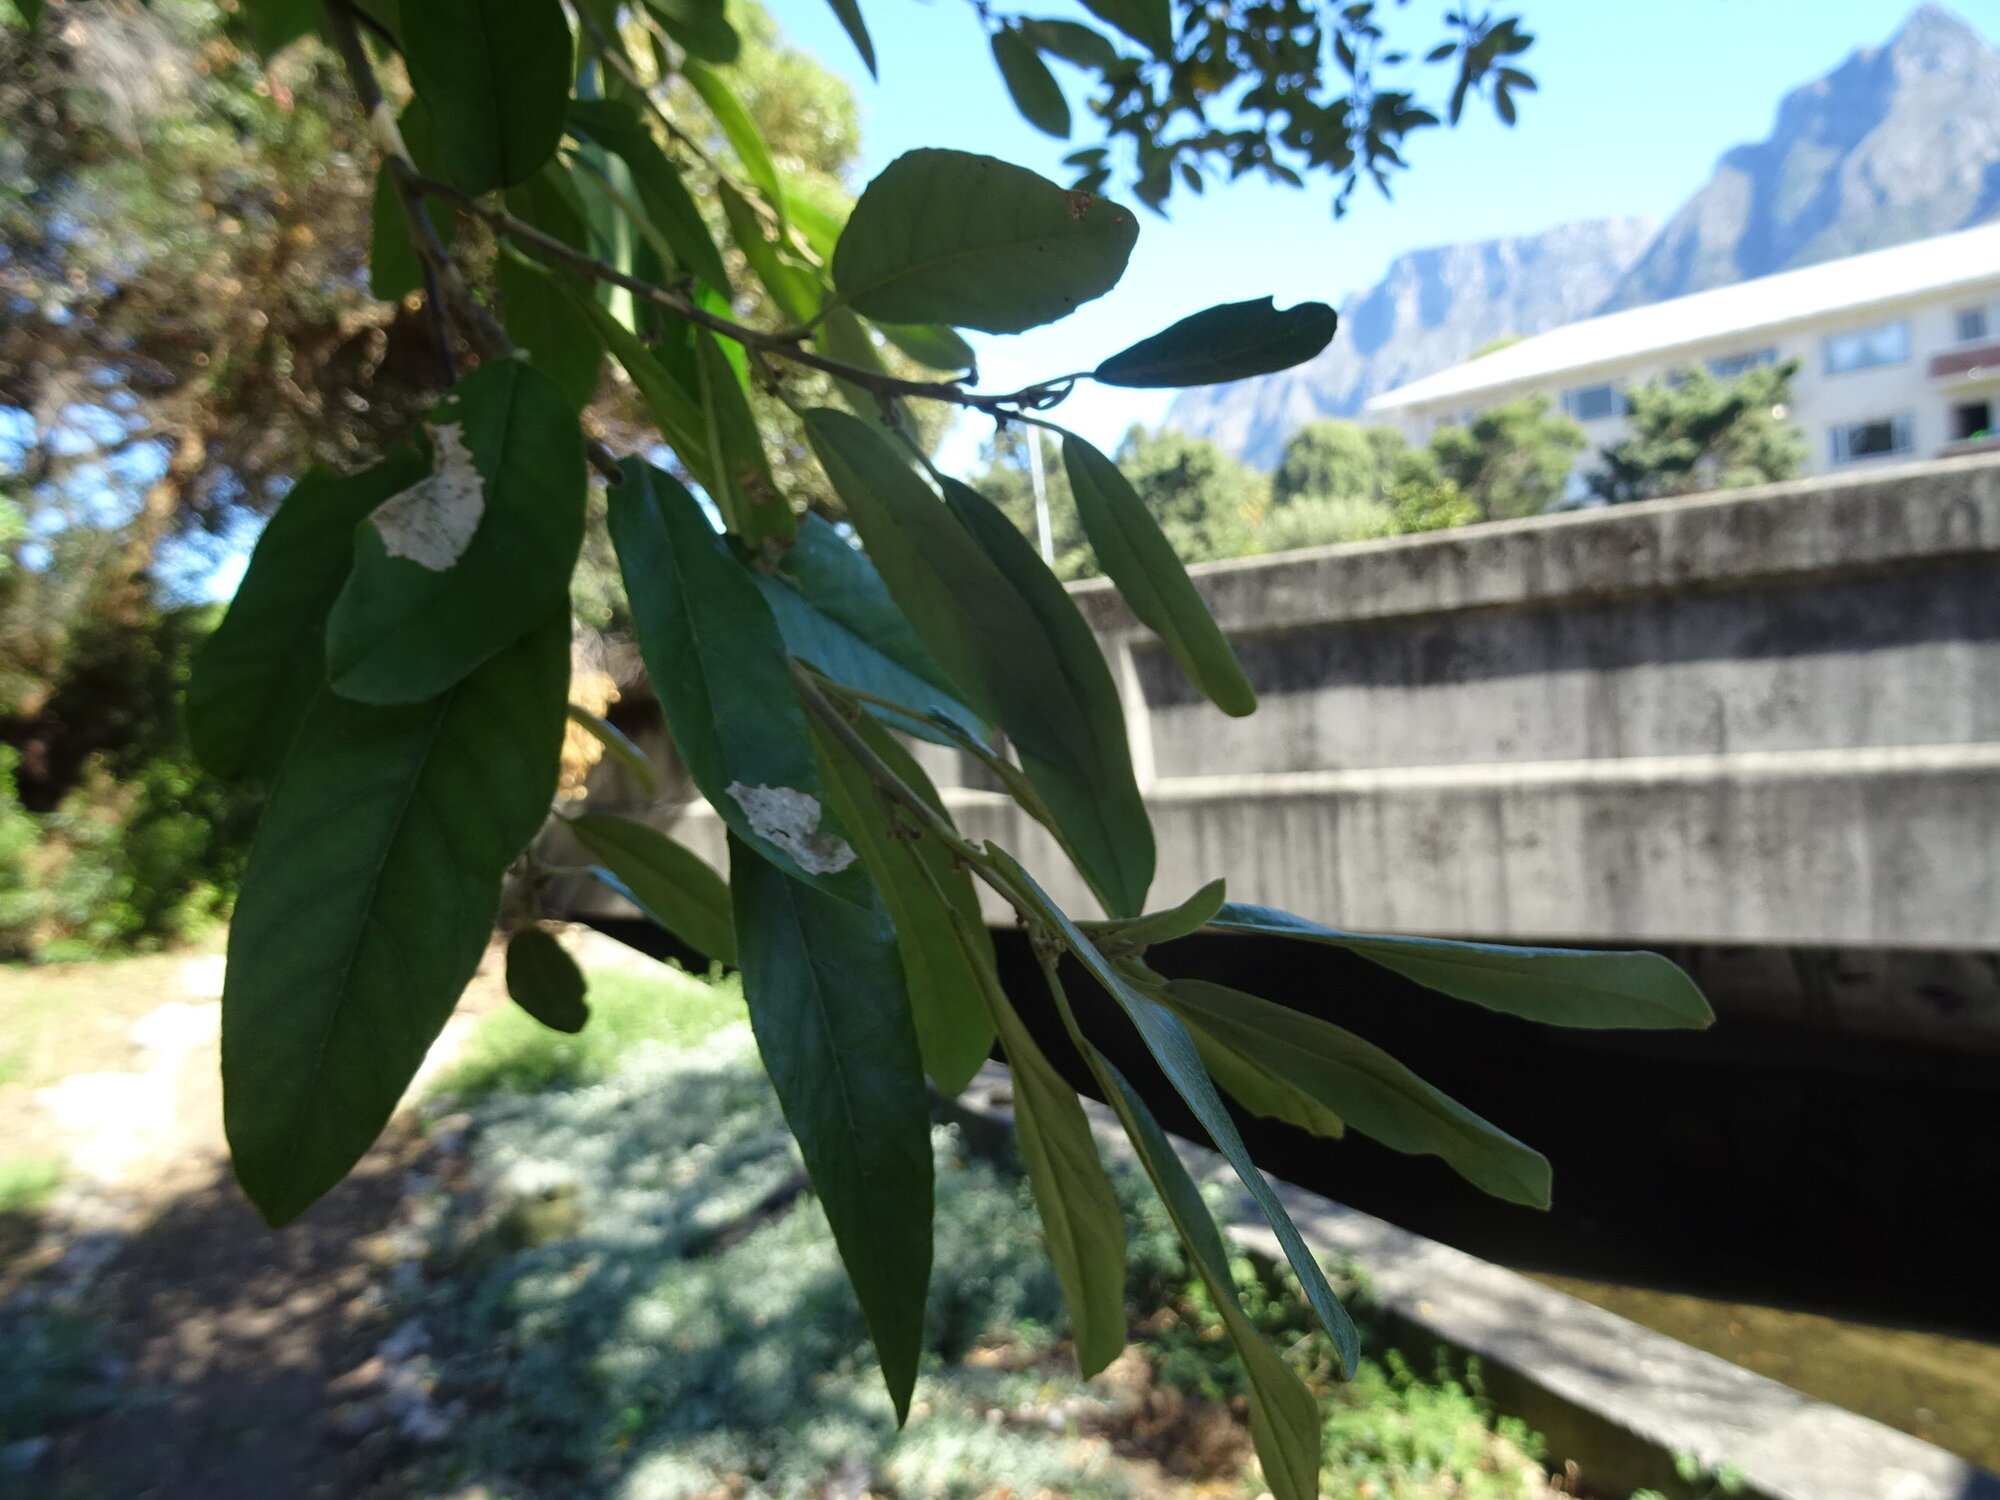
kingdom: Plantae
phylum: Tracheophyta
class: Magnoliopsida
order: Malpighiales
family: Achariaceae
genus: Kiggelaria
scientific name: Kiggelaria africana
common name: Wild peach
